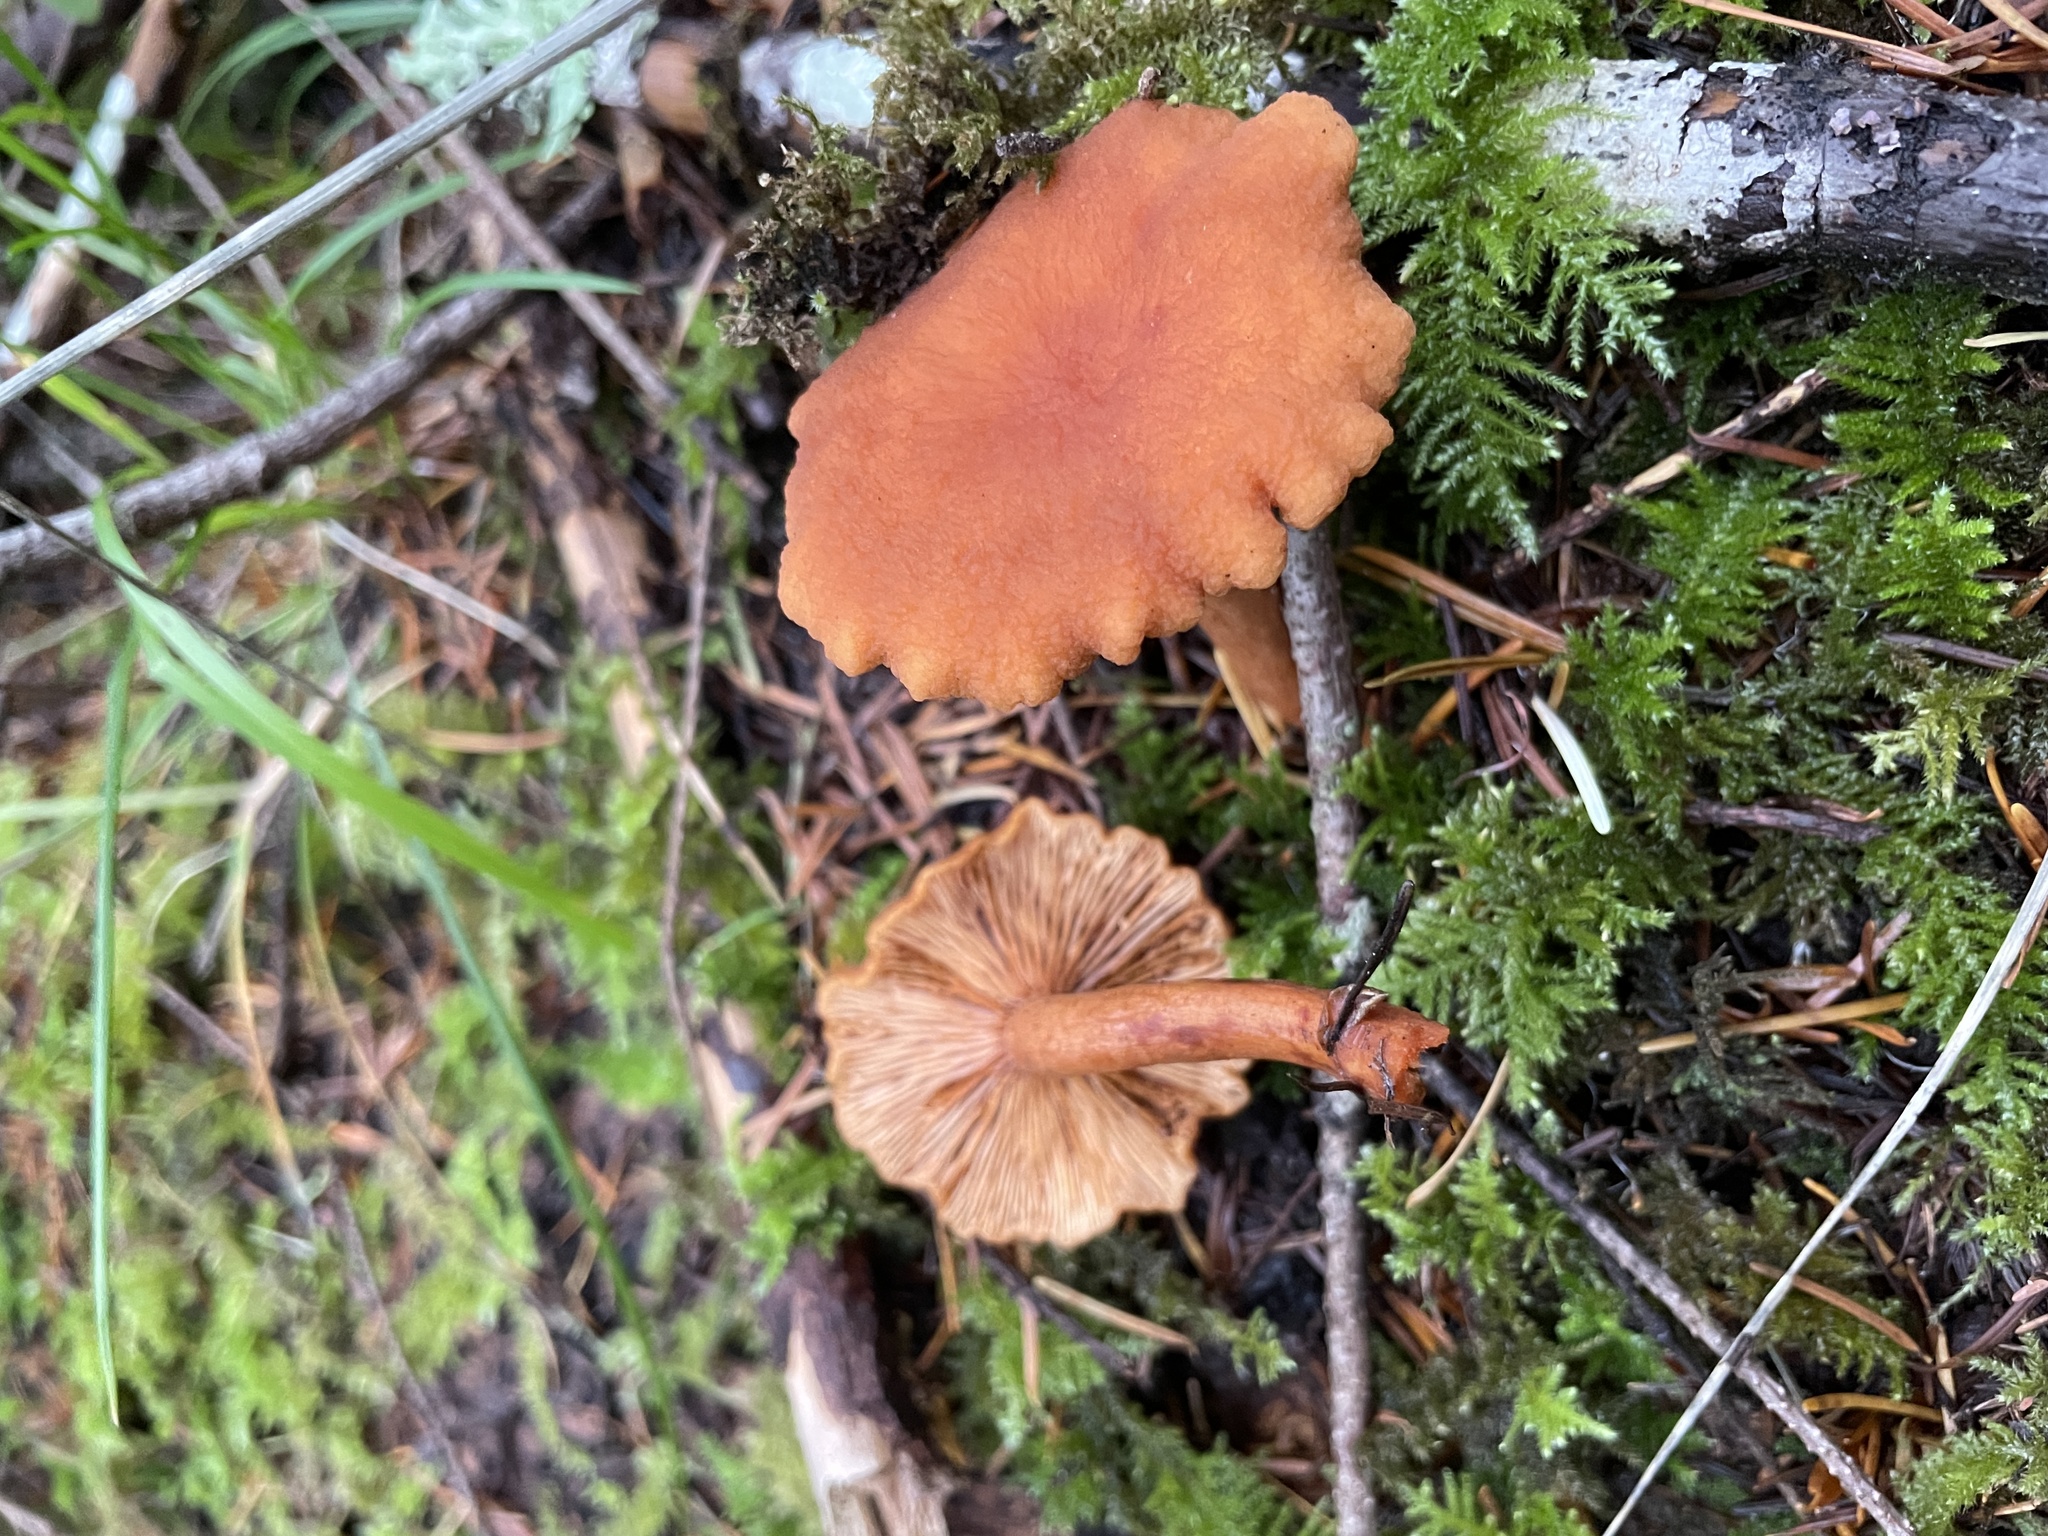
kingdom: Fungi
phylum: Basidiomycota
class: Agaricomycetes
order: Russulales
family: Russulaceae
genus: Lactarius
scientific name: Lactarius rubidus
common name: Candy cap
